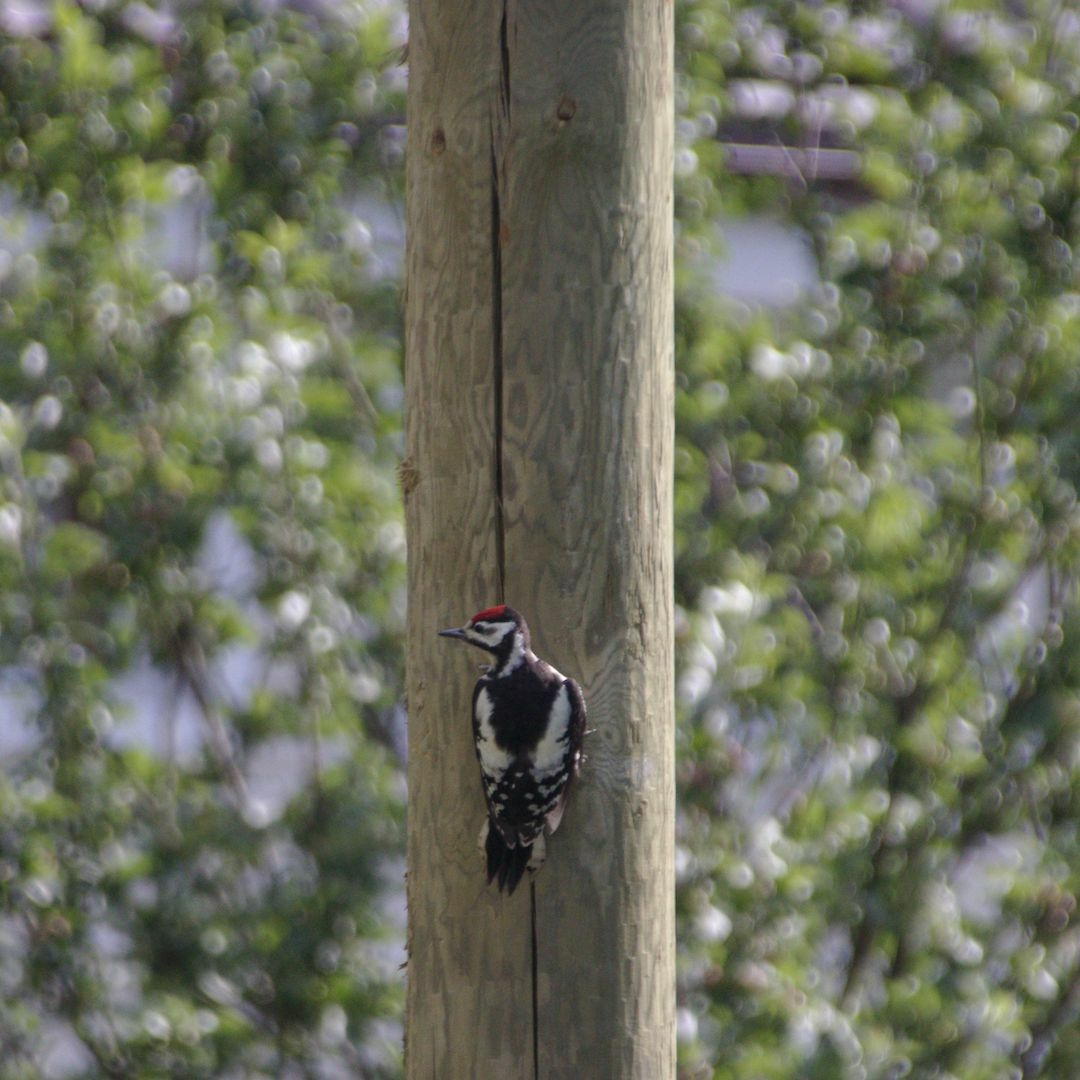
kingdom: Animalia
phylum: Chordata
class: Aves
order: Piciformes
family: Picidae
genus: Dendrocopos
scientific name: Dendrocopos major
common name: Great spotted woodpecker
